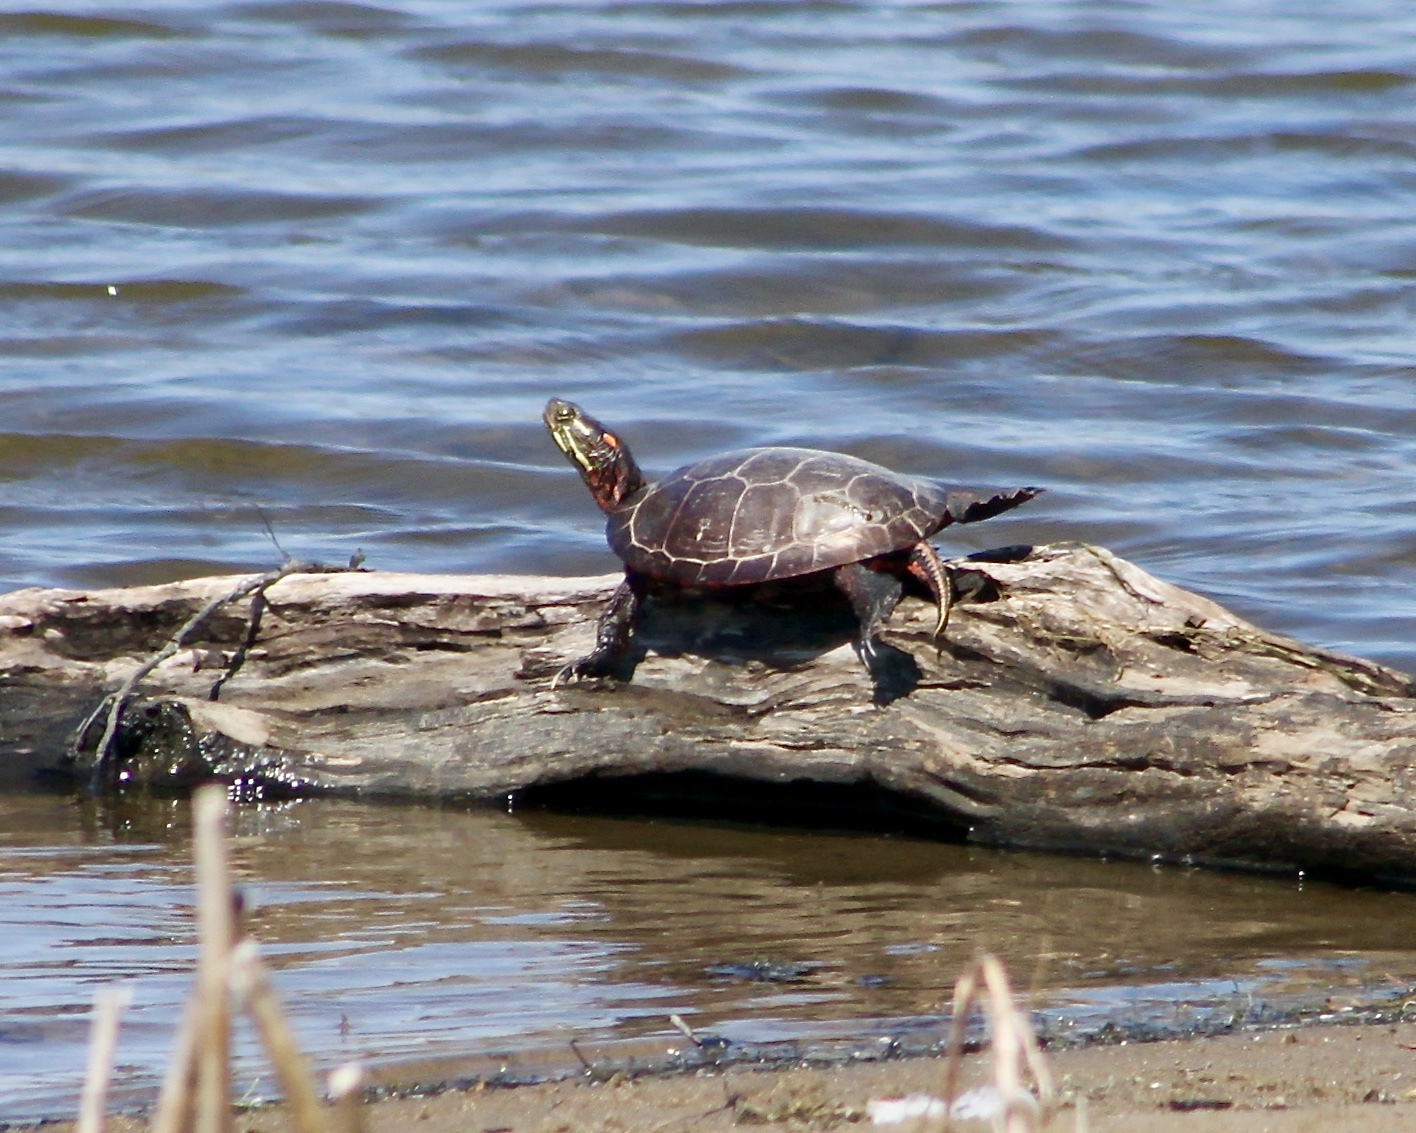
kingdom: Animalia
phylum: Chordata
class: Testudines
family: Emydidae
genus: Chrysemys
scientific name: Chrysemys picta
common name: Painted turtle
